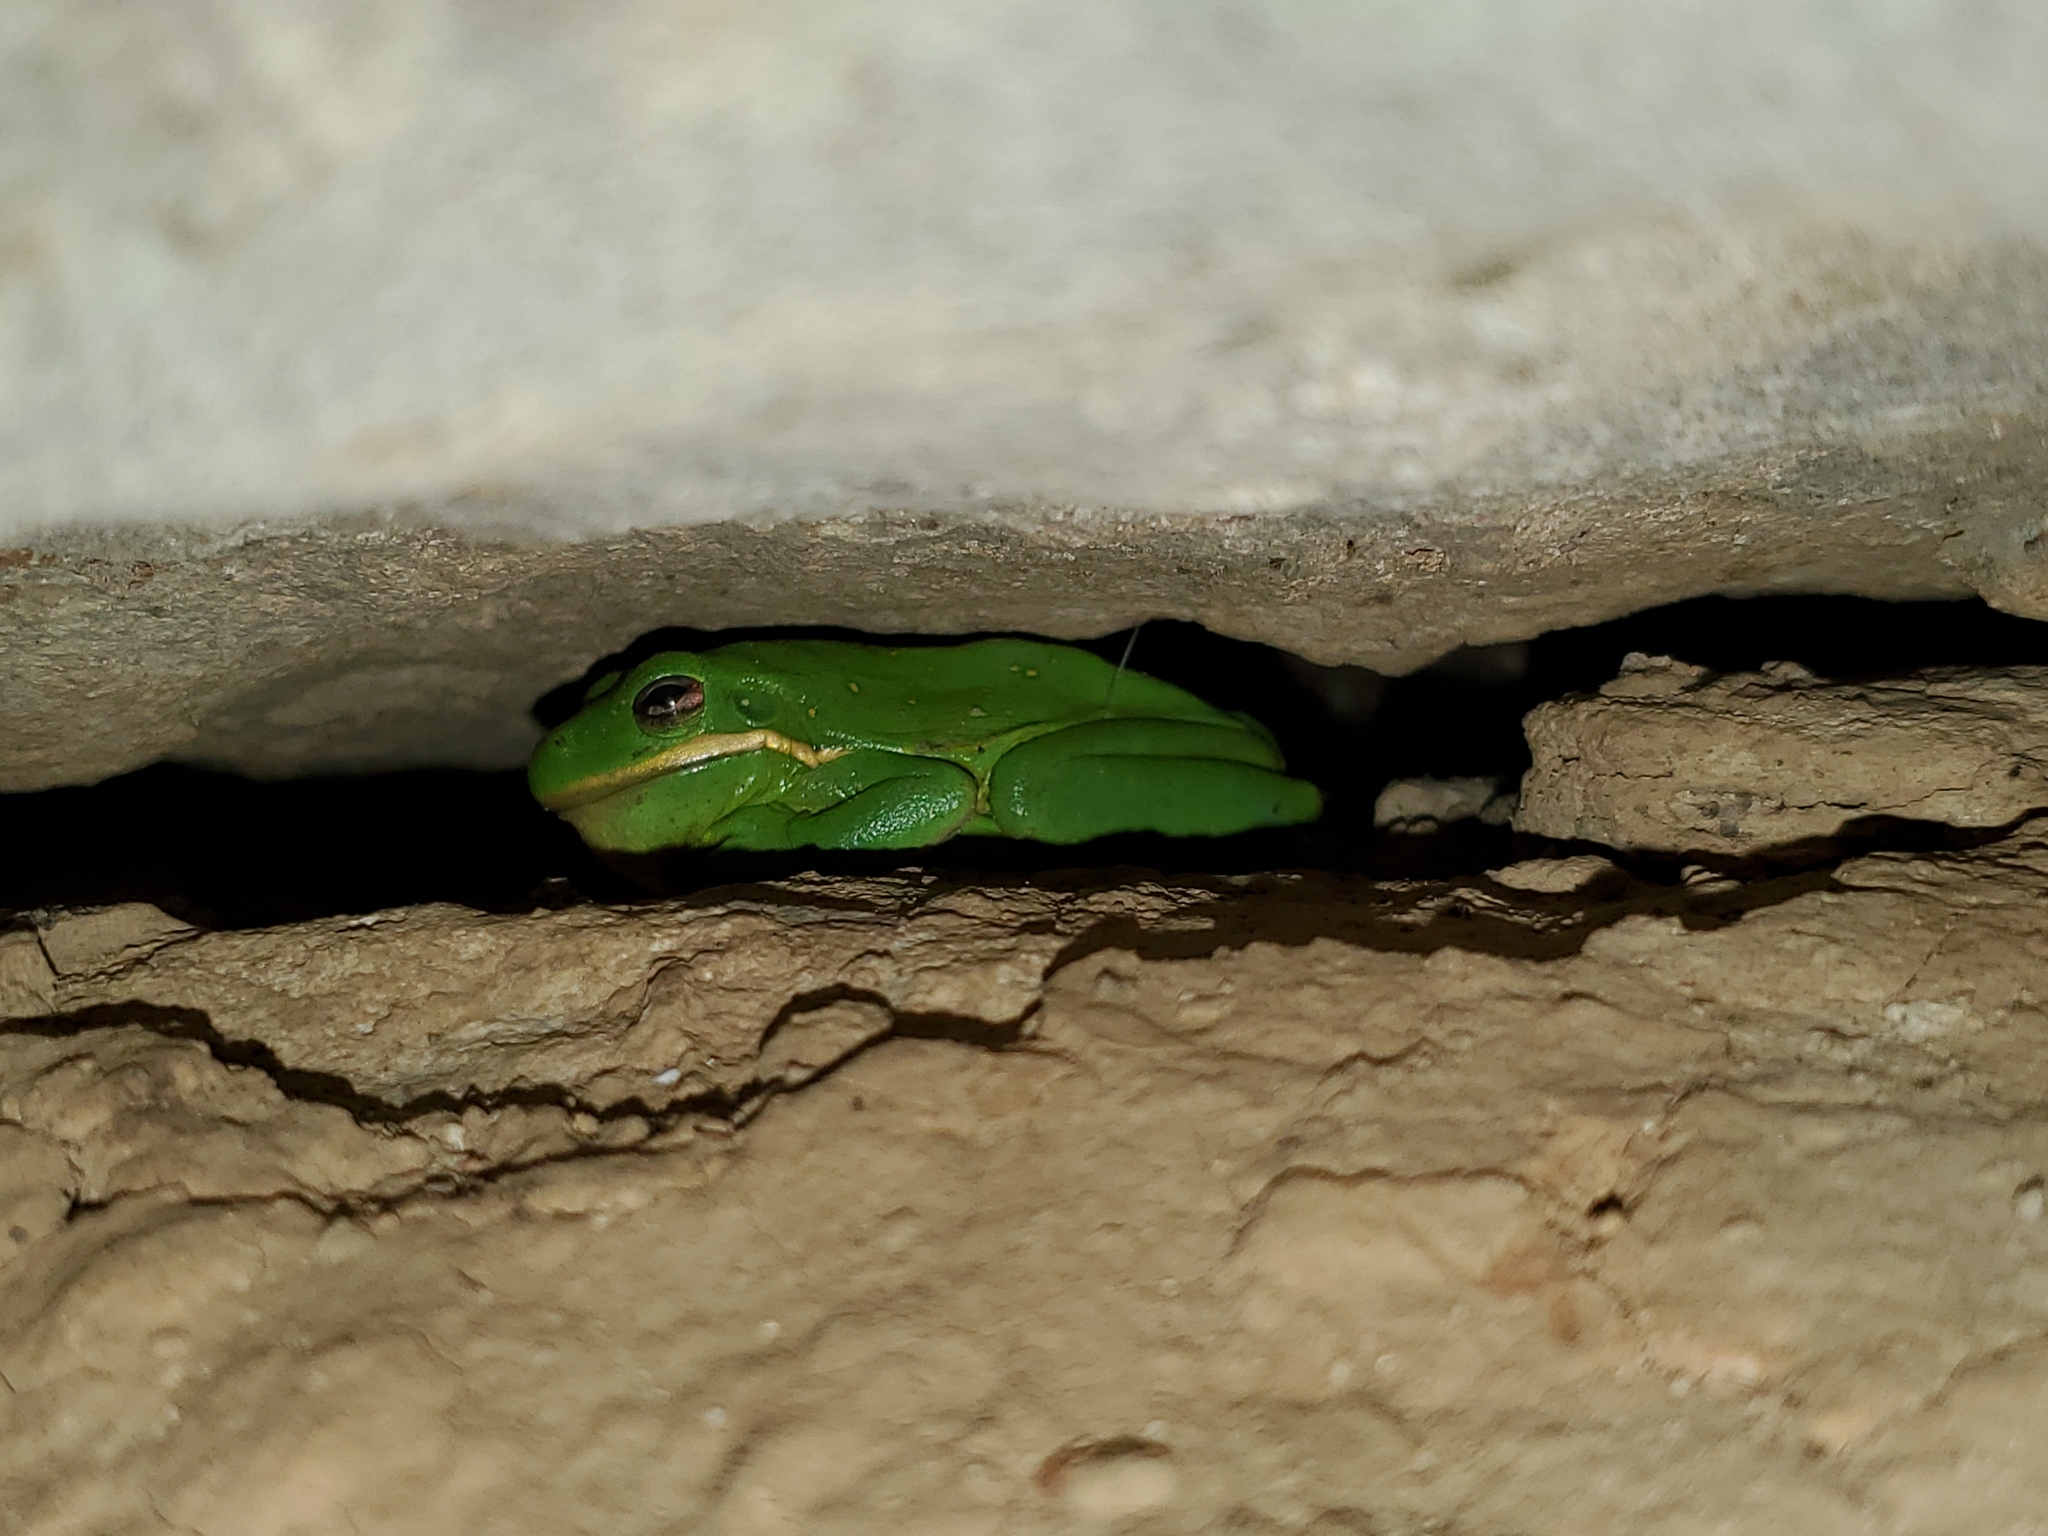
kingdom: Animalia
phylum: Chordata
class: Amphibia
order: Anura
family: Hylidae
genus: Dryophytes
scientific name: Dryophytes cinereus
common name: Green treefrog
